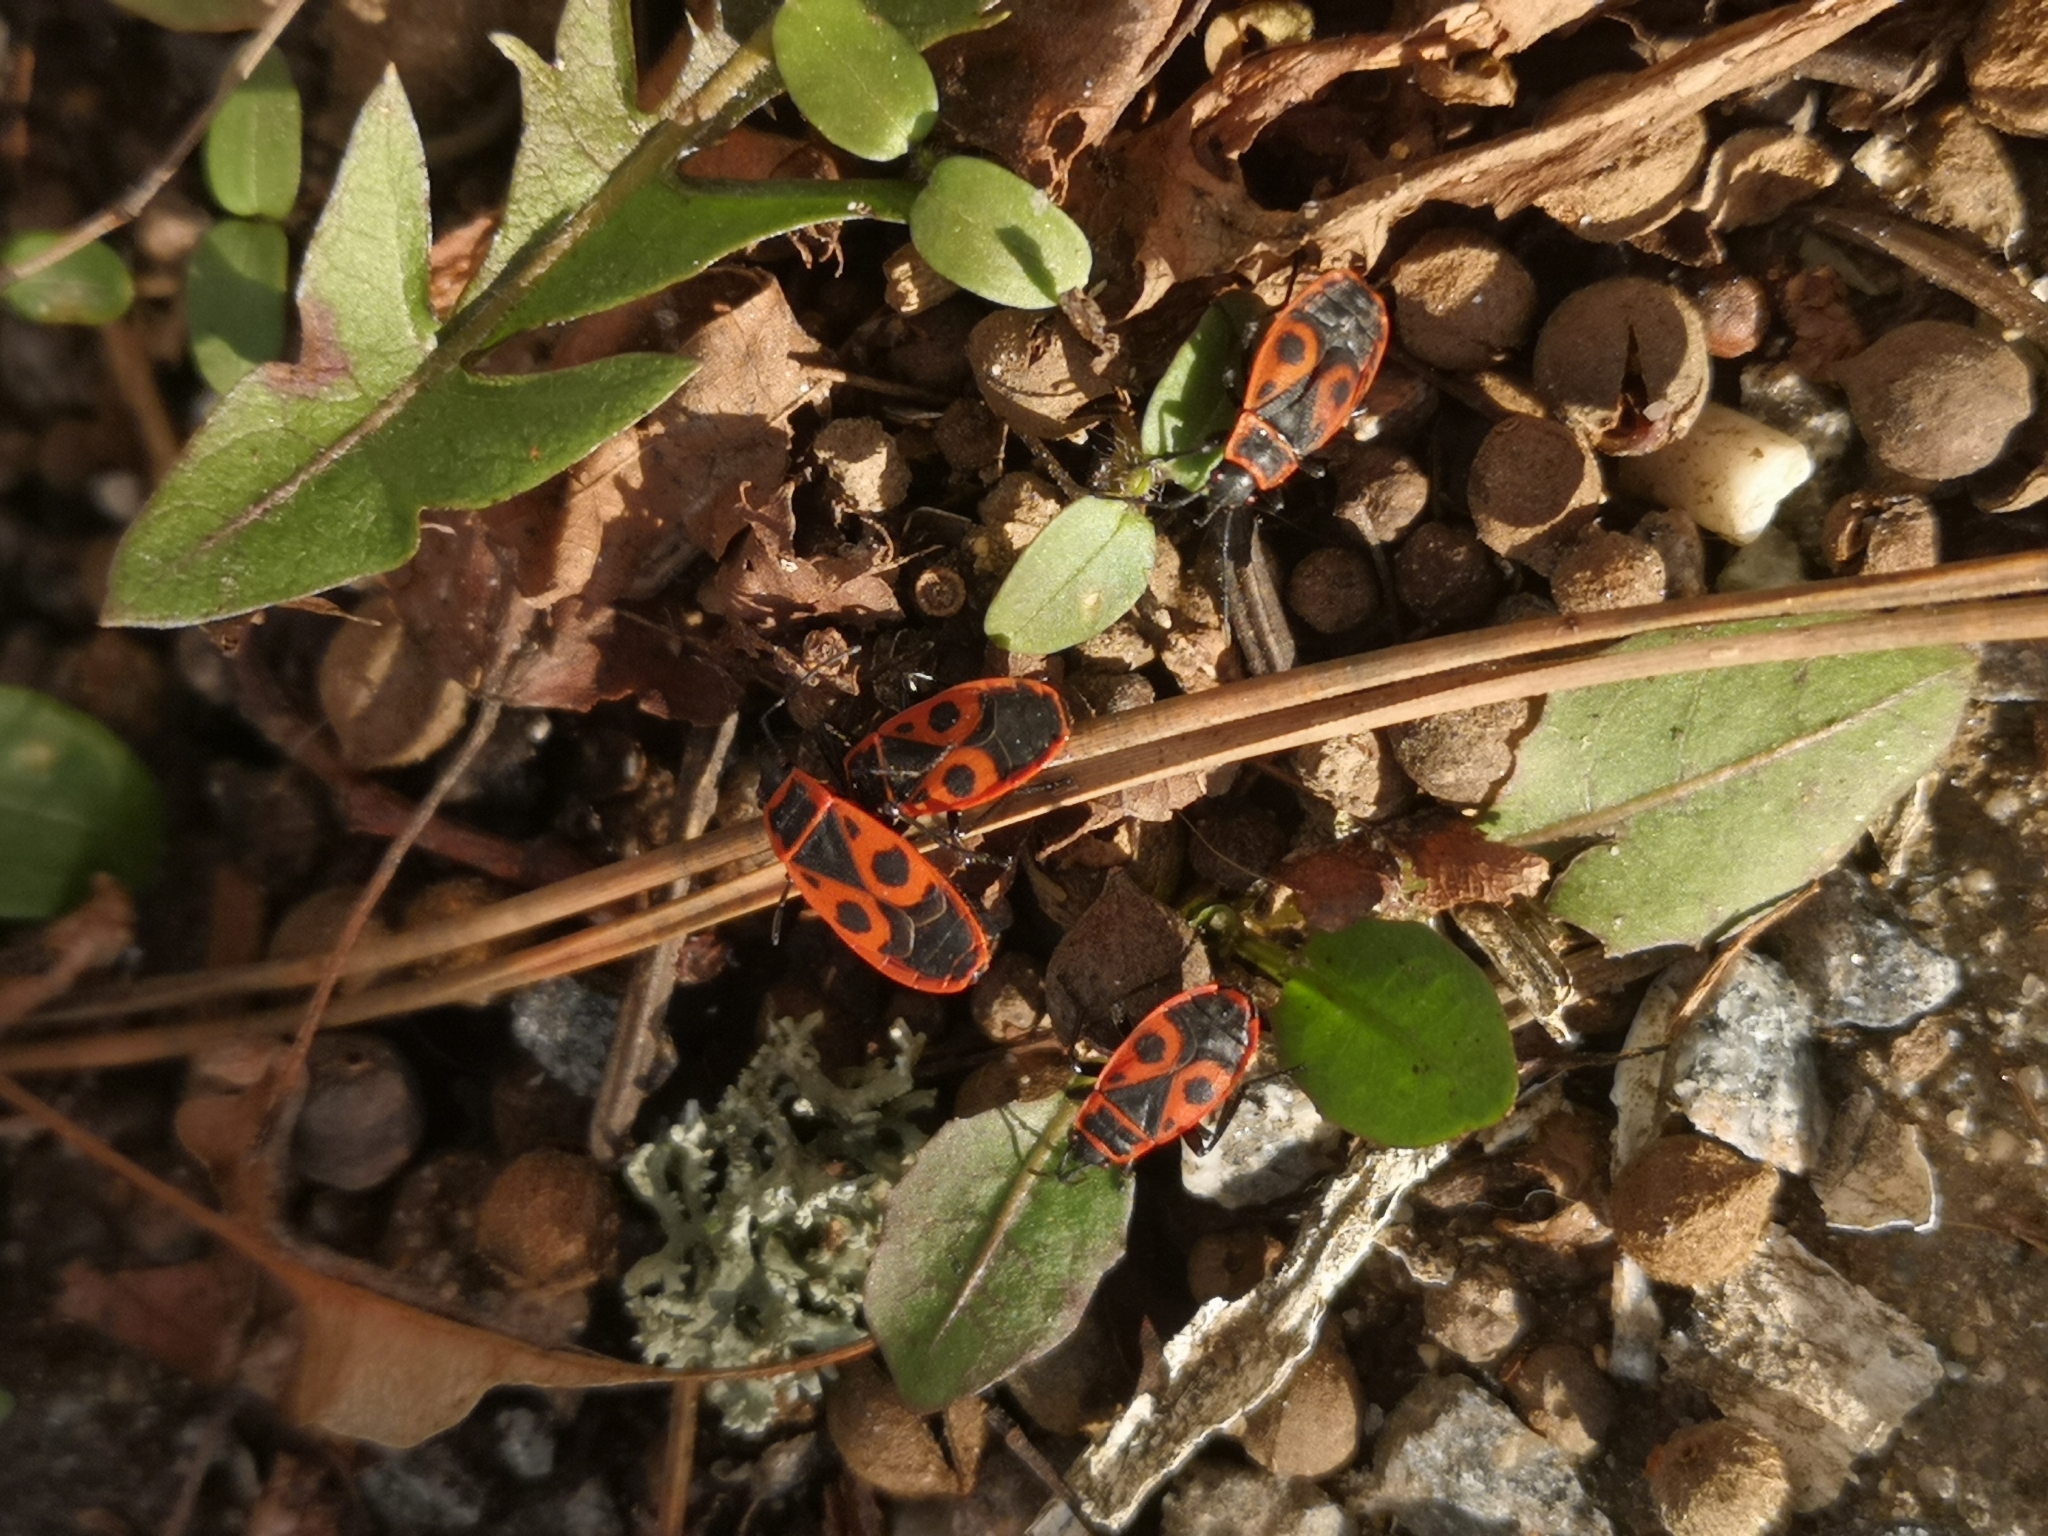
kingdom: Animalia
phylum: Arthropoda
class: Insecta
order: Hemiptera
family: Pyrrhocoridae
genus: Pyrrhocoris
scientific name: Pyrrhocoris apterus
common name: Firebug
